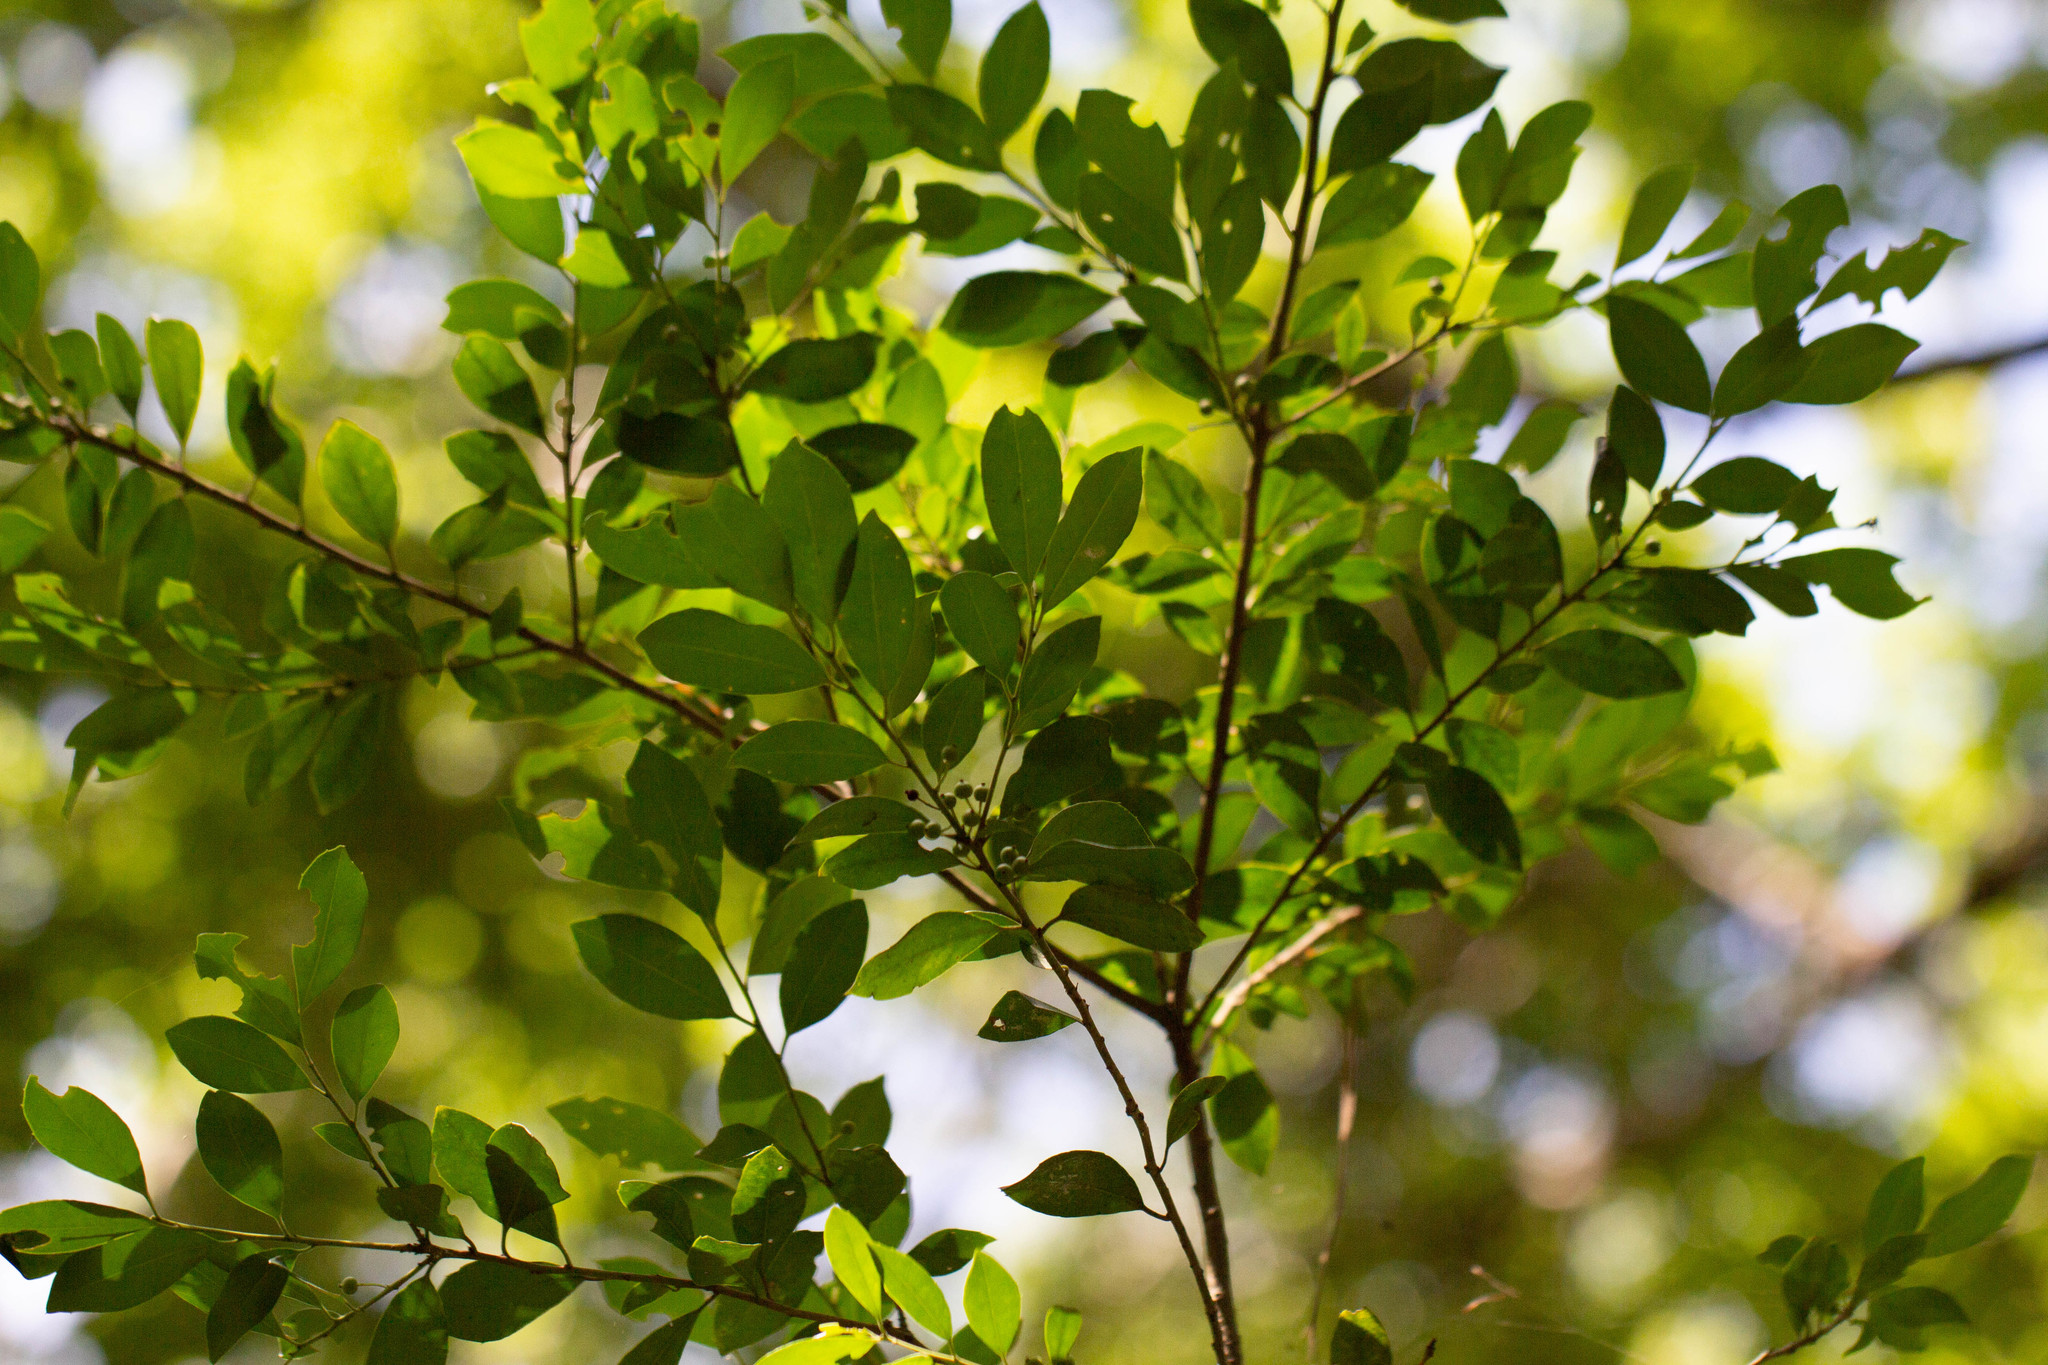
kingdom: Plantae
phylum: Tracheophyta
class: Magnoliopsida
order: Aquifoliales
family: Aquifoliaceae
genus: Ilex
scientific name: Ilex coriacea
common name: Sweet gallberry
